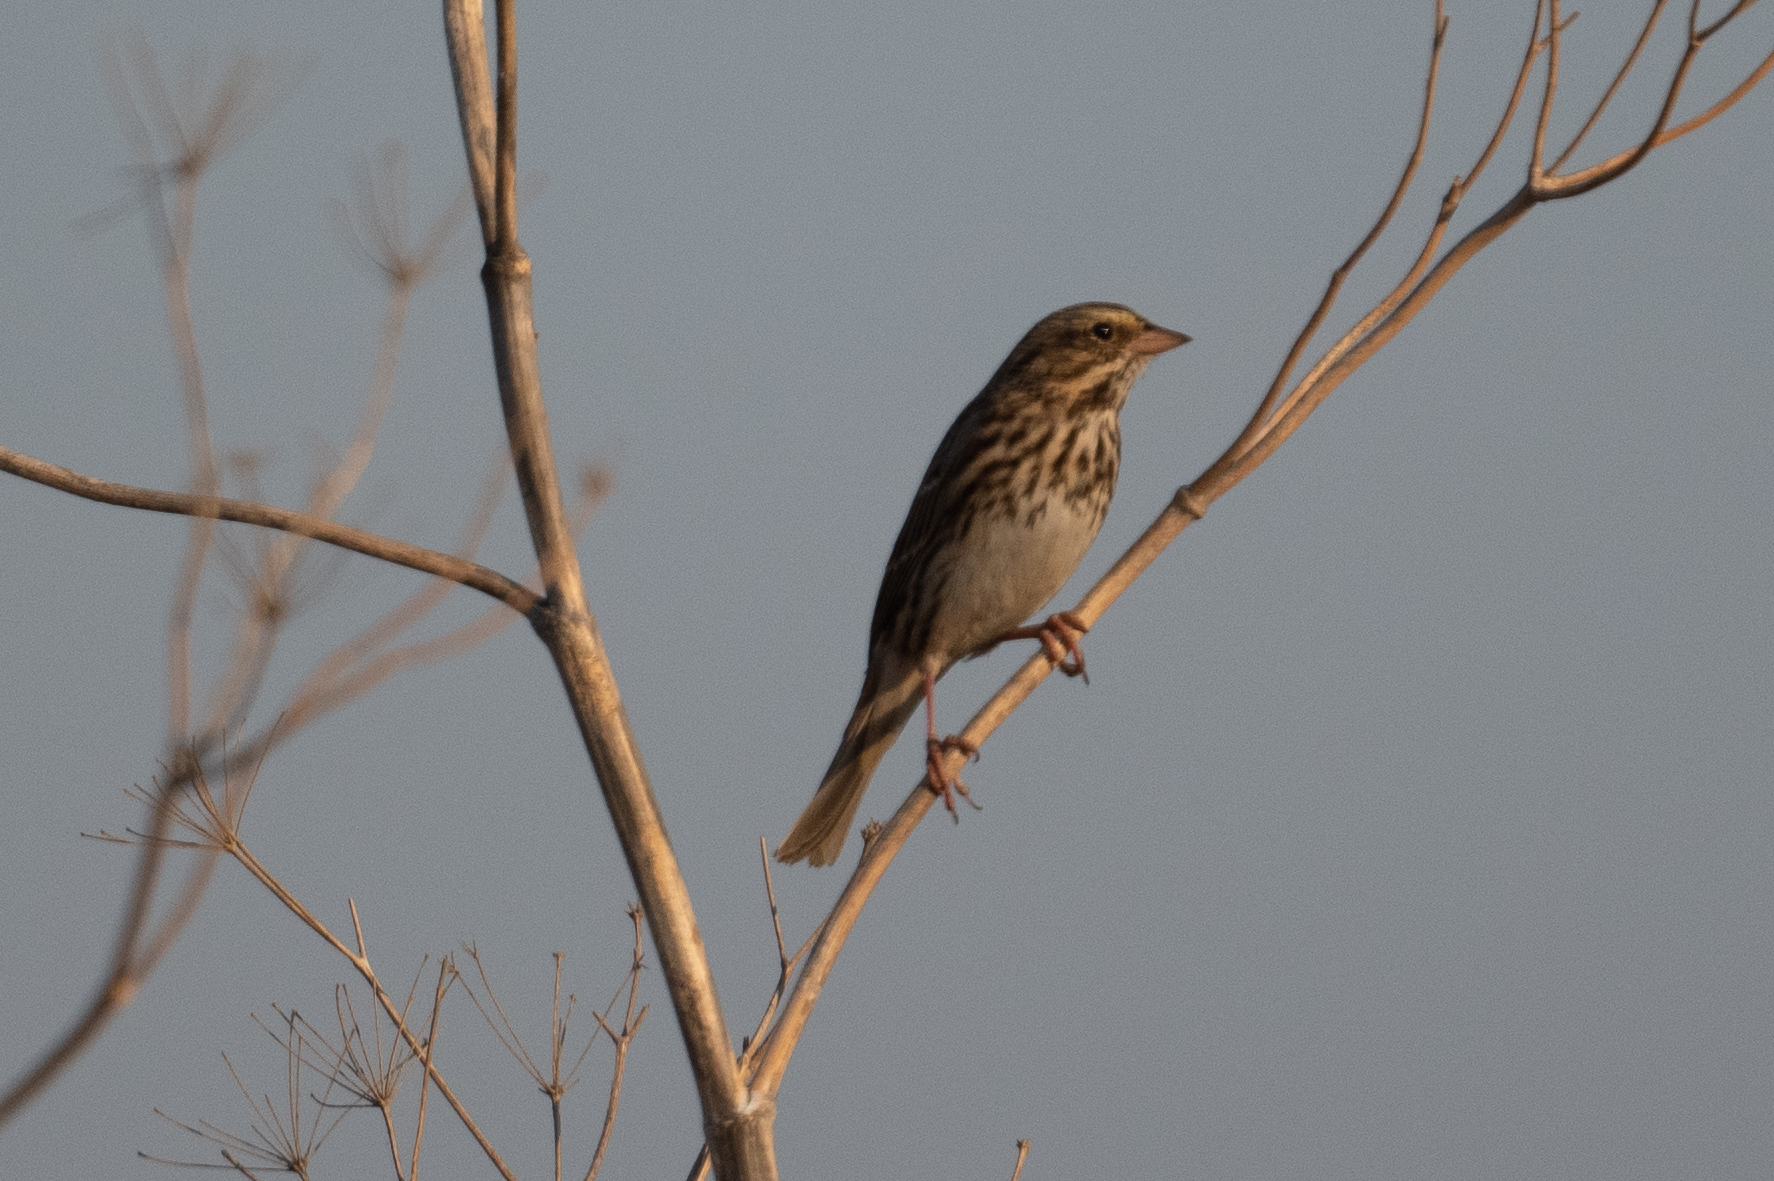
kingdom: Animalia
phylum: Chordata
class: Aves
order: Passeriformes
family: Passerellidae
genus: Passerculus
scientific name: Passerculus sandwichensis
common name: Savannah sparrow
